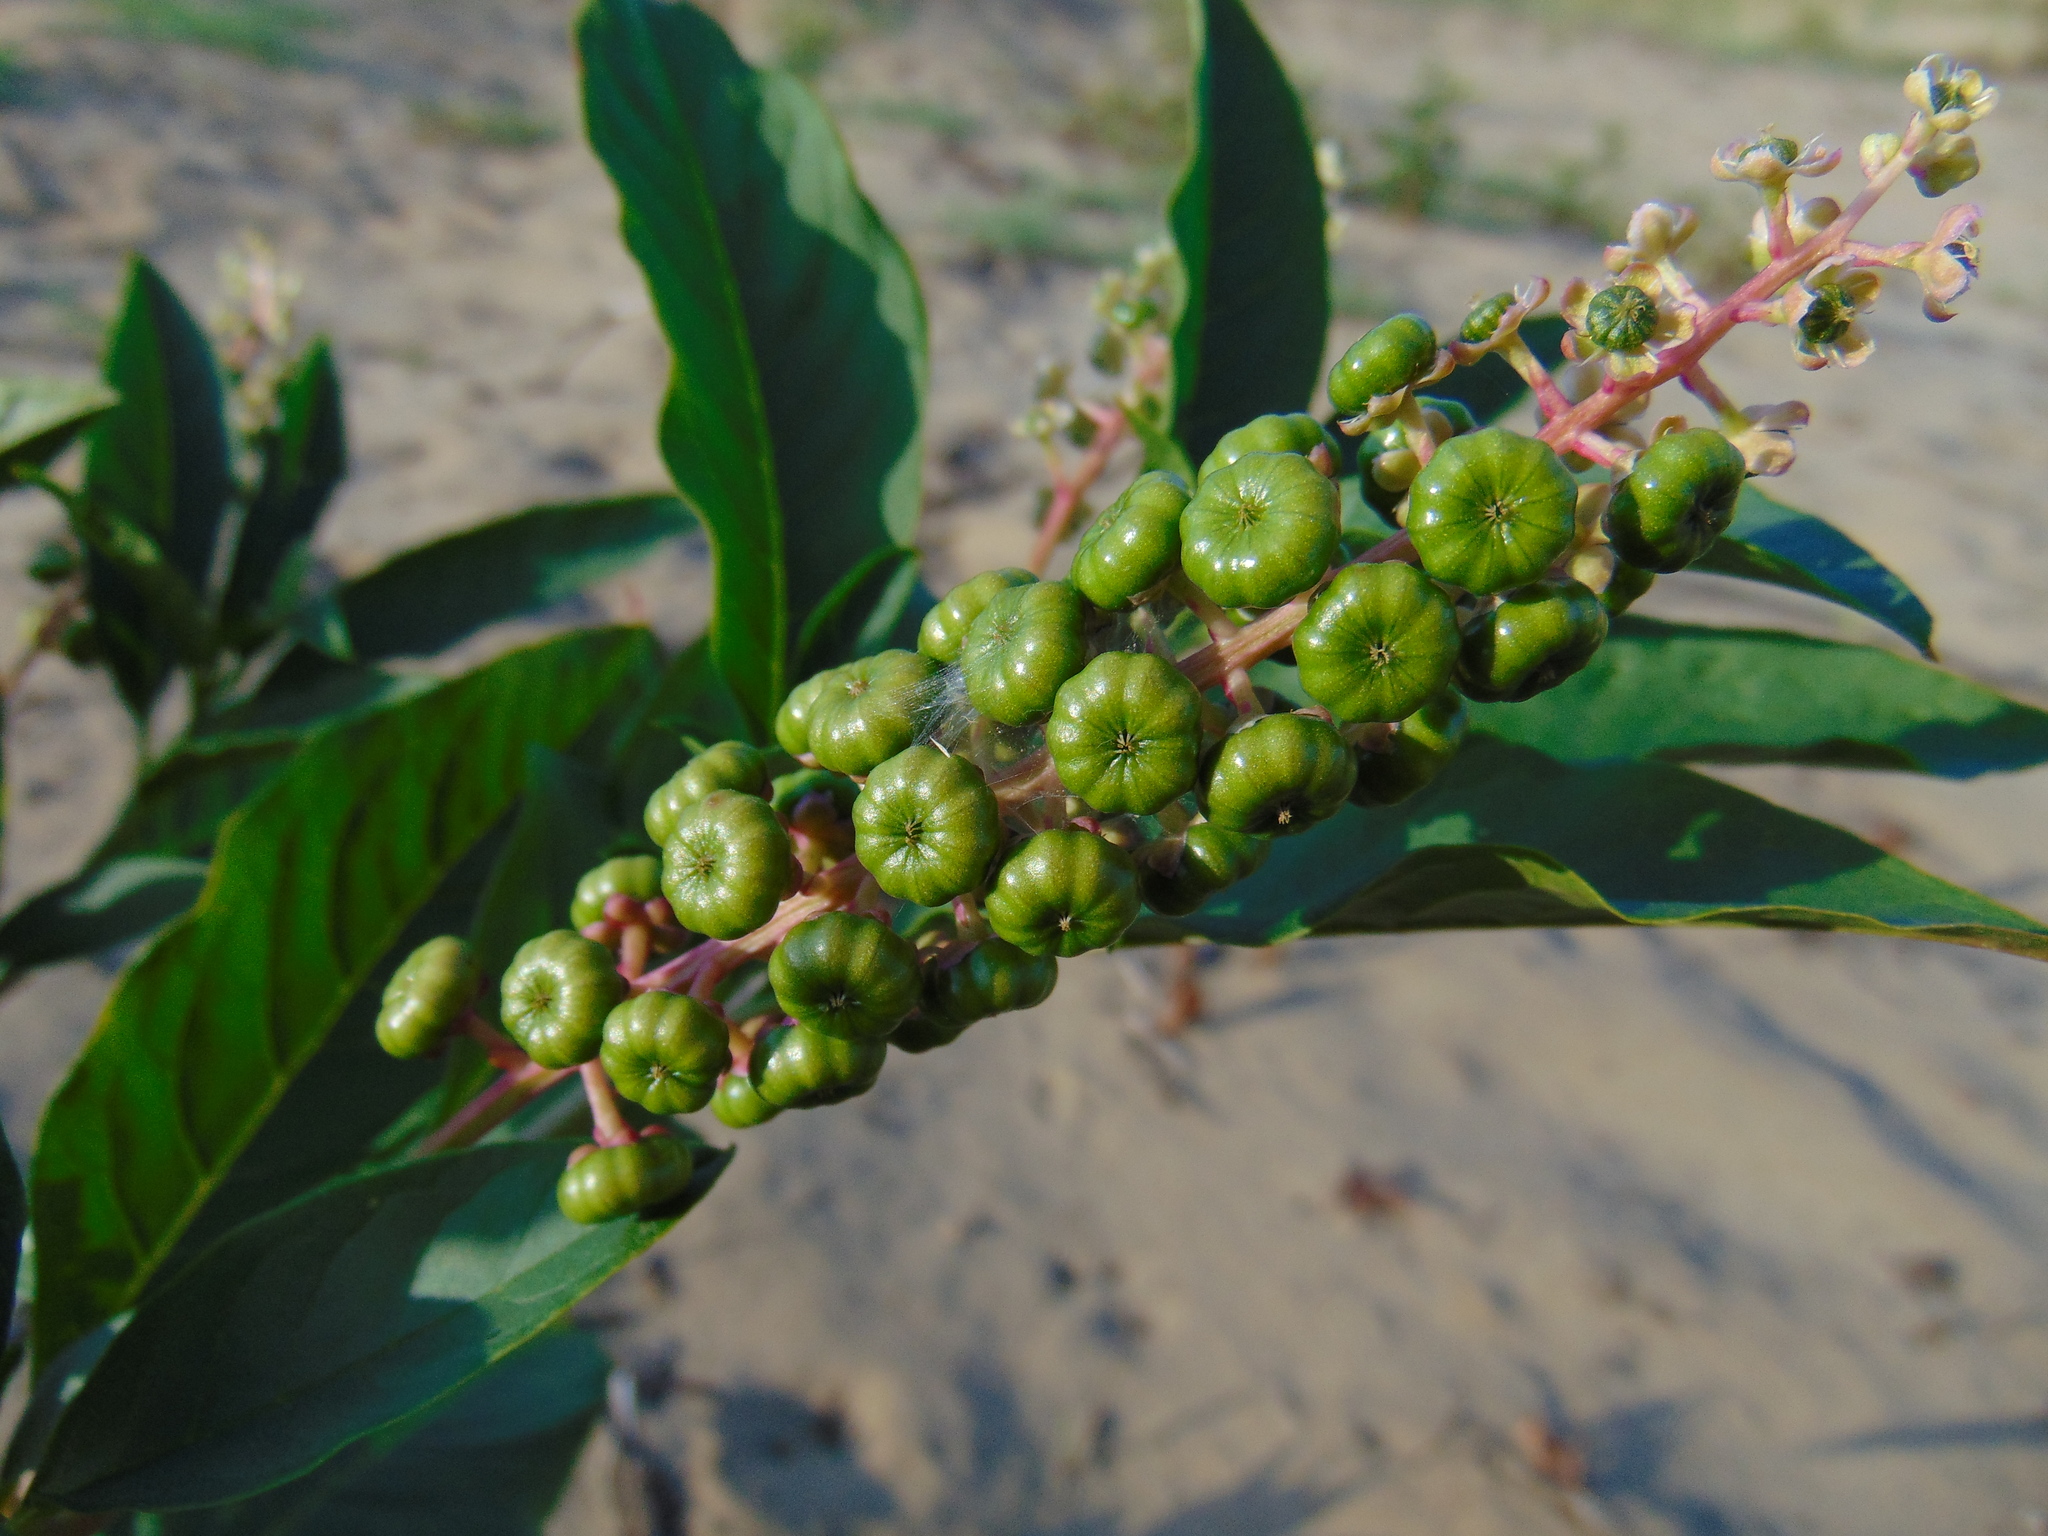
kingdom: Plantae
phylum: Tracheophyta
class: Magnoliopsida
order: Caryophyllales
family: Phytolaccaceae
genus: Phytolacca
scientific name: Phytolacca americana
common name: American pokeweed
